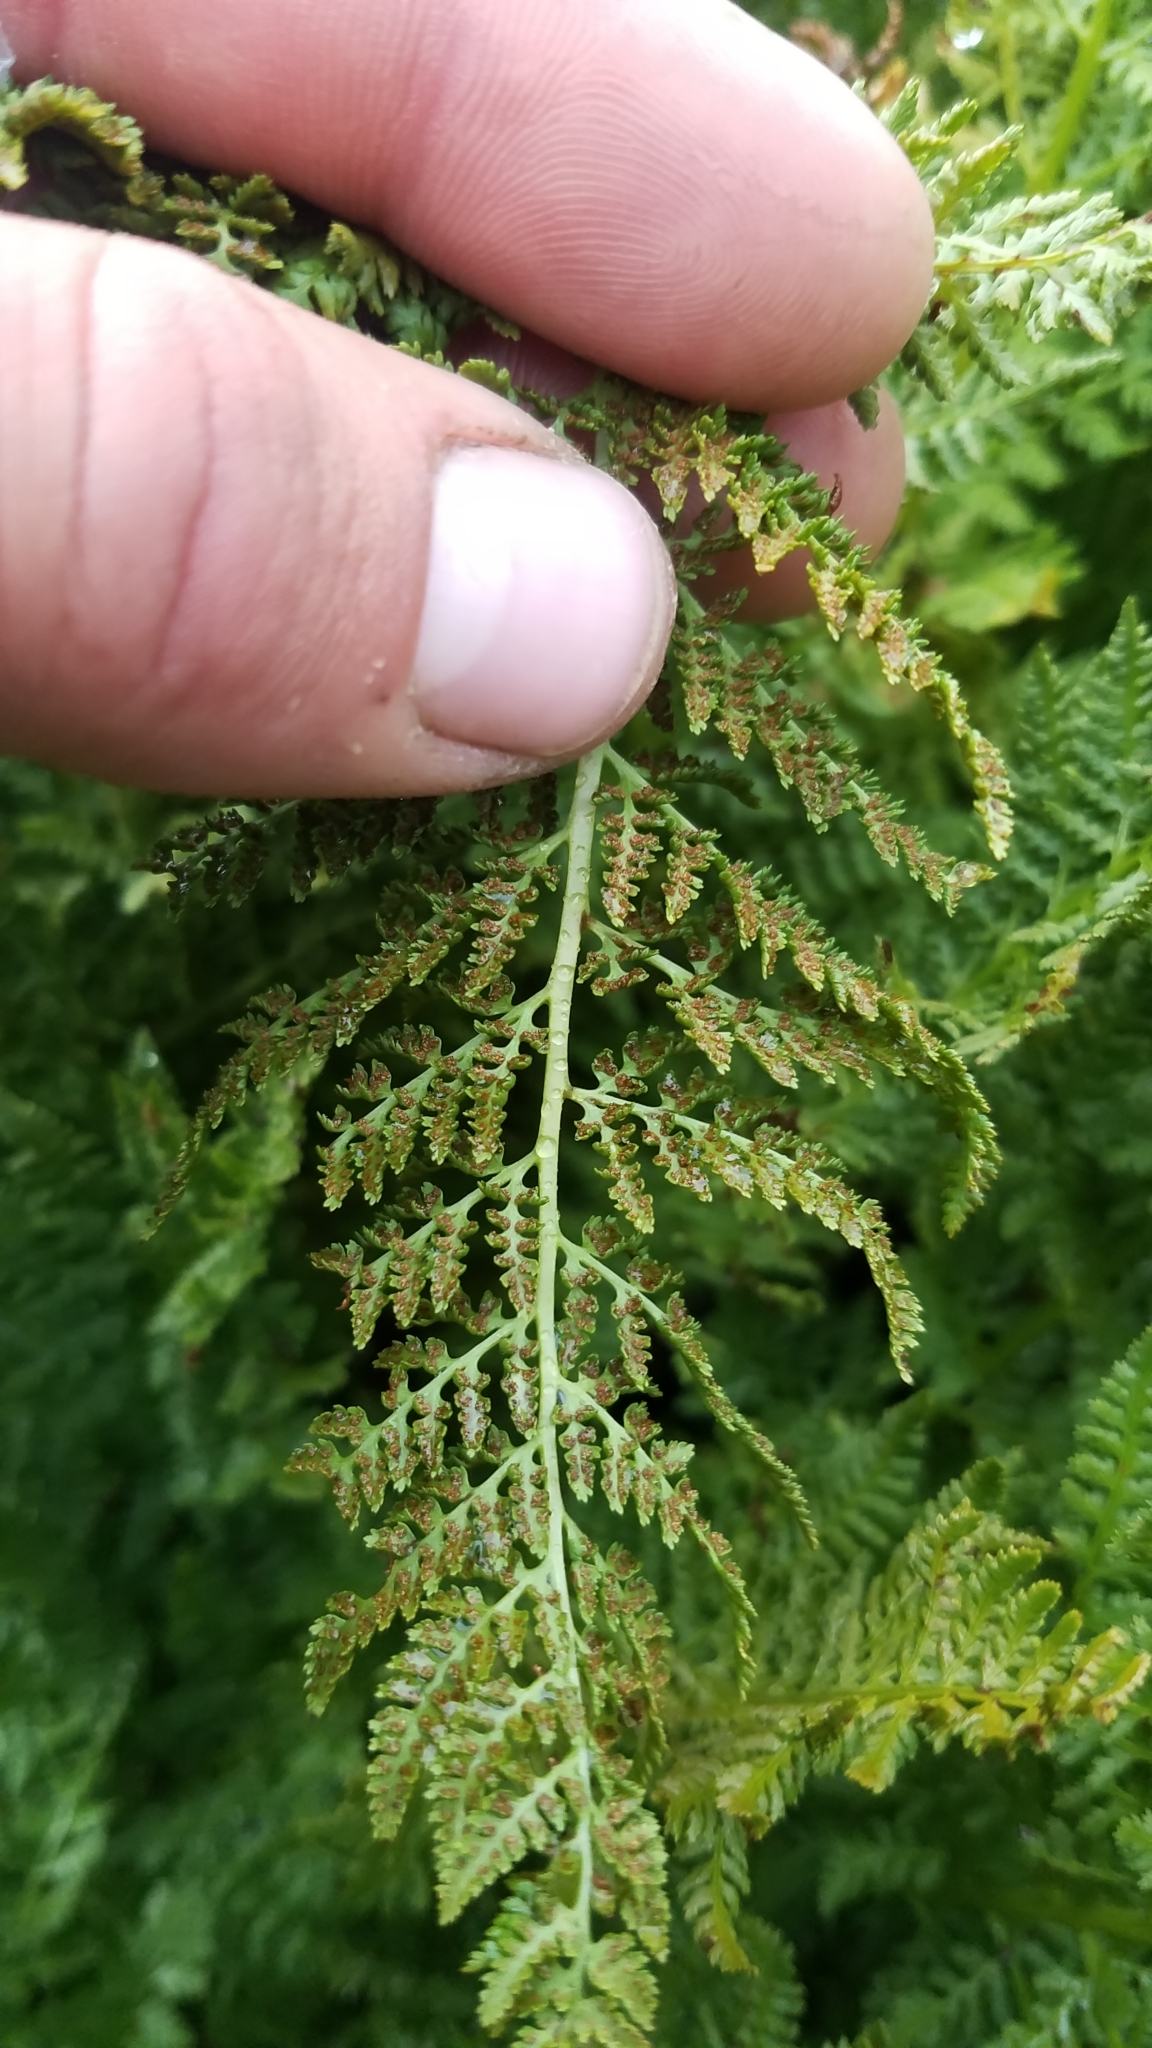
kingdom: Plantae
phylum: Tracheophyta
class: Polypodiopsida
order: Polypodiales
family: Athyriaceae
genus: Athyrium
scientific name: Athyrium americanum
